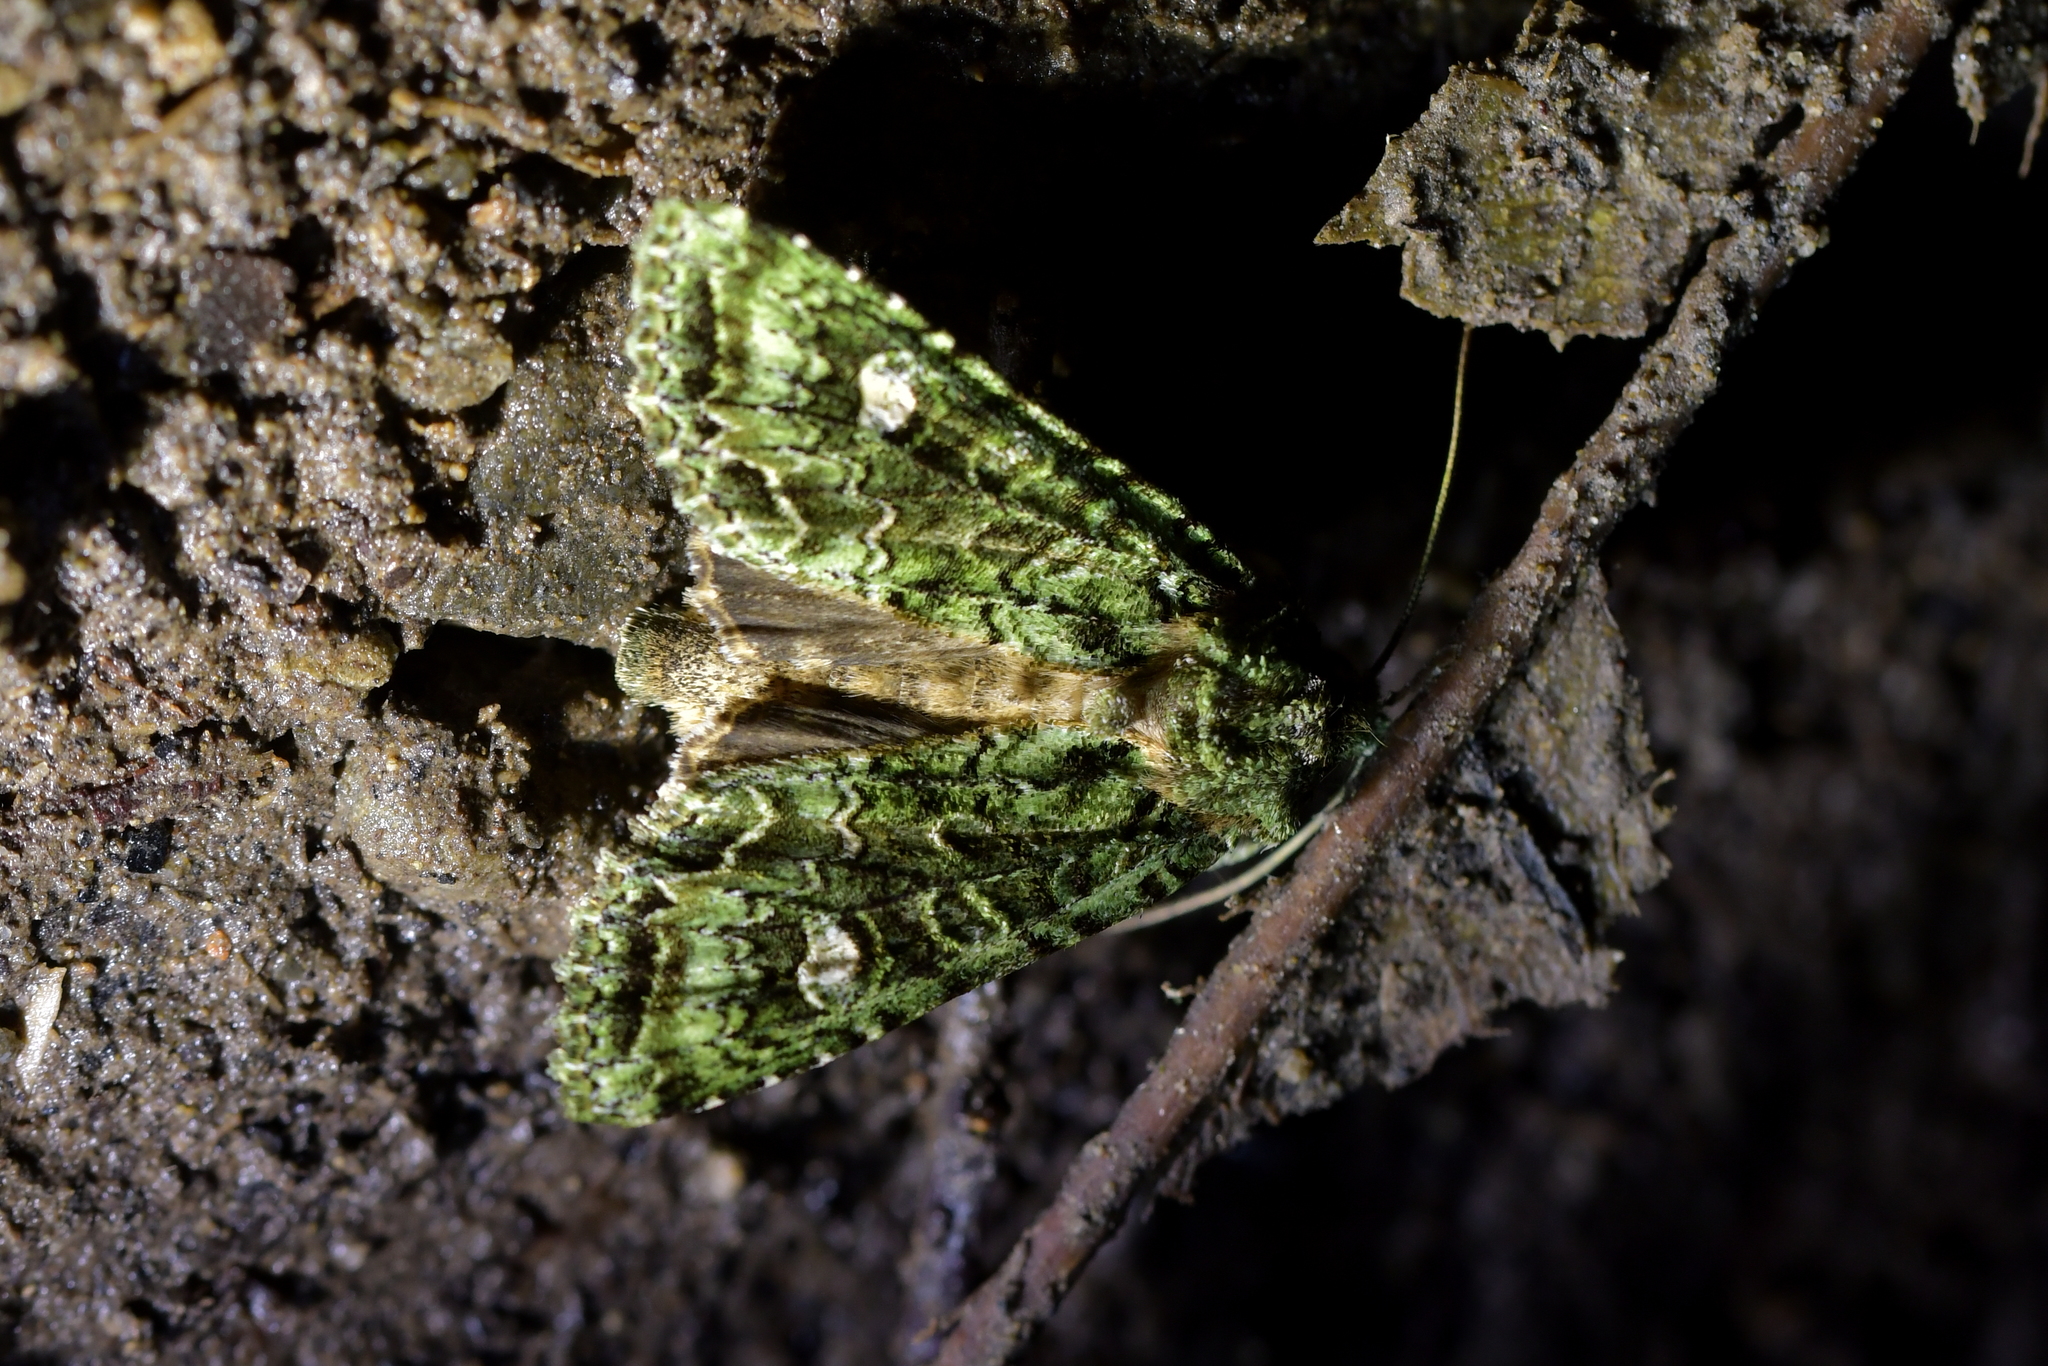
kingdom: Animalia
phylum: Arthropoda
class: Insecta
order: Lepidoptera
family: Noctuidae
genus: Ichneutica
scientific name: Ichneutica
